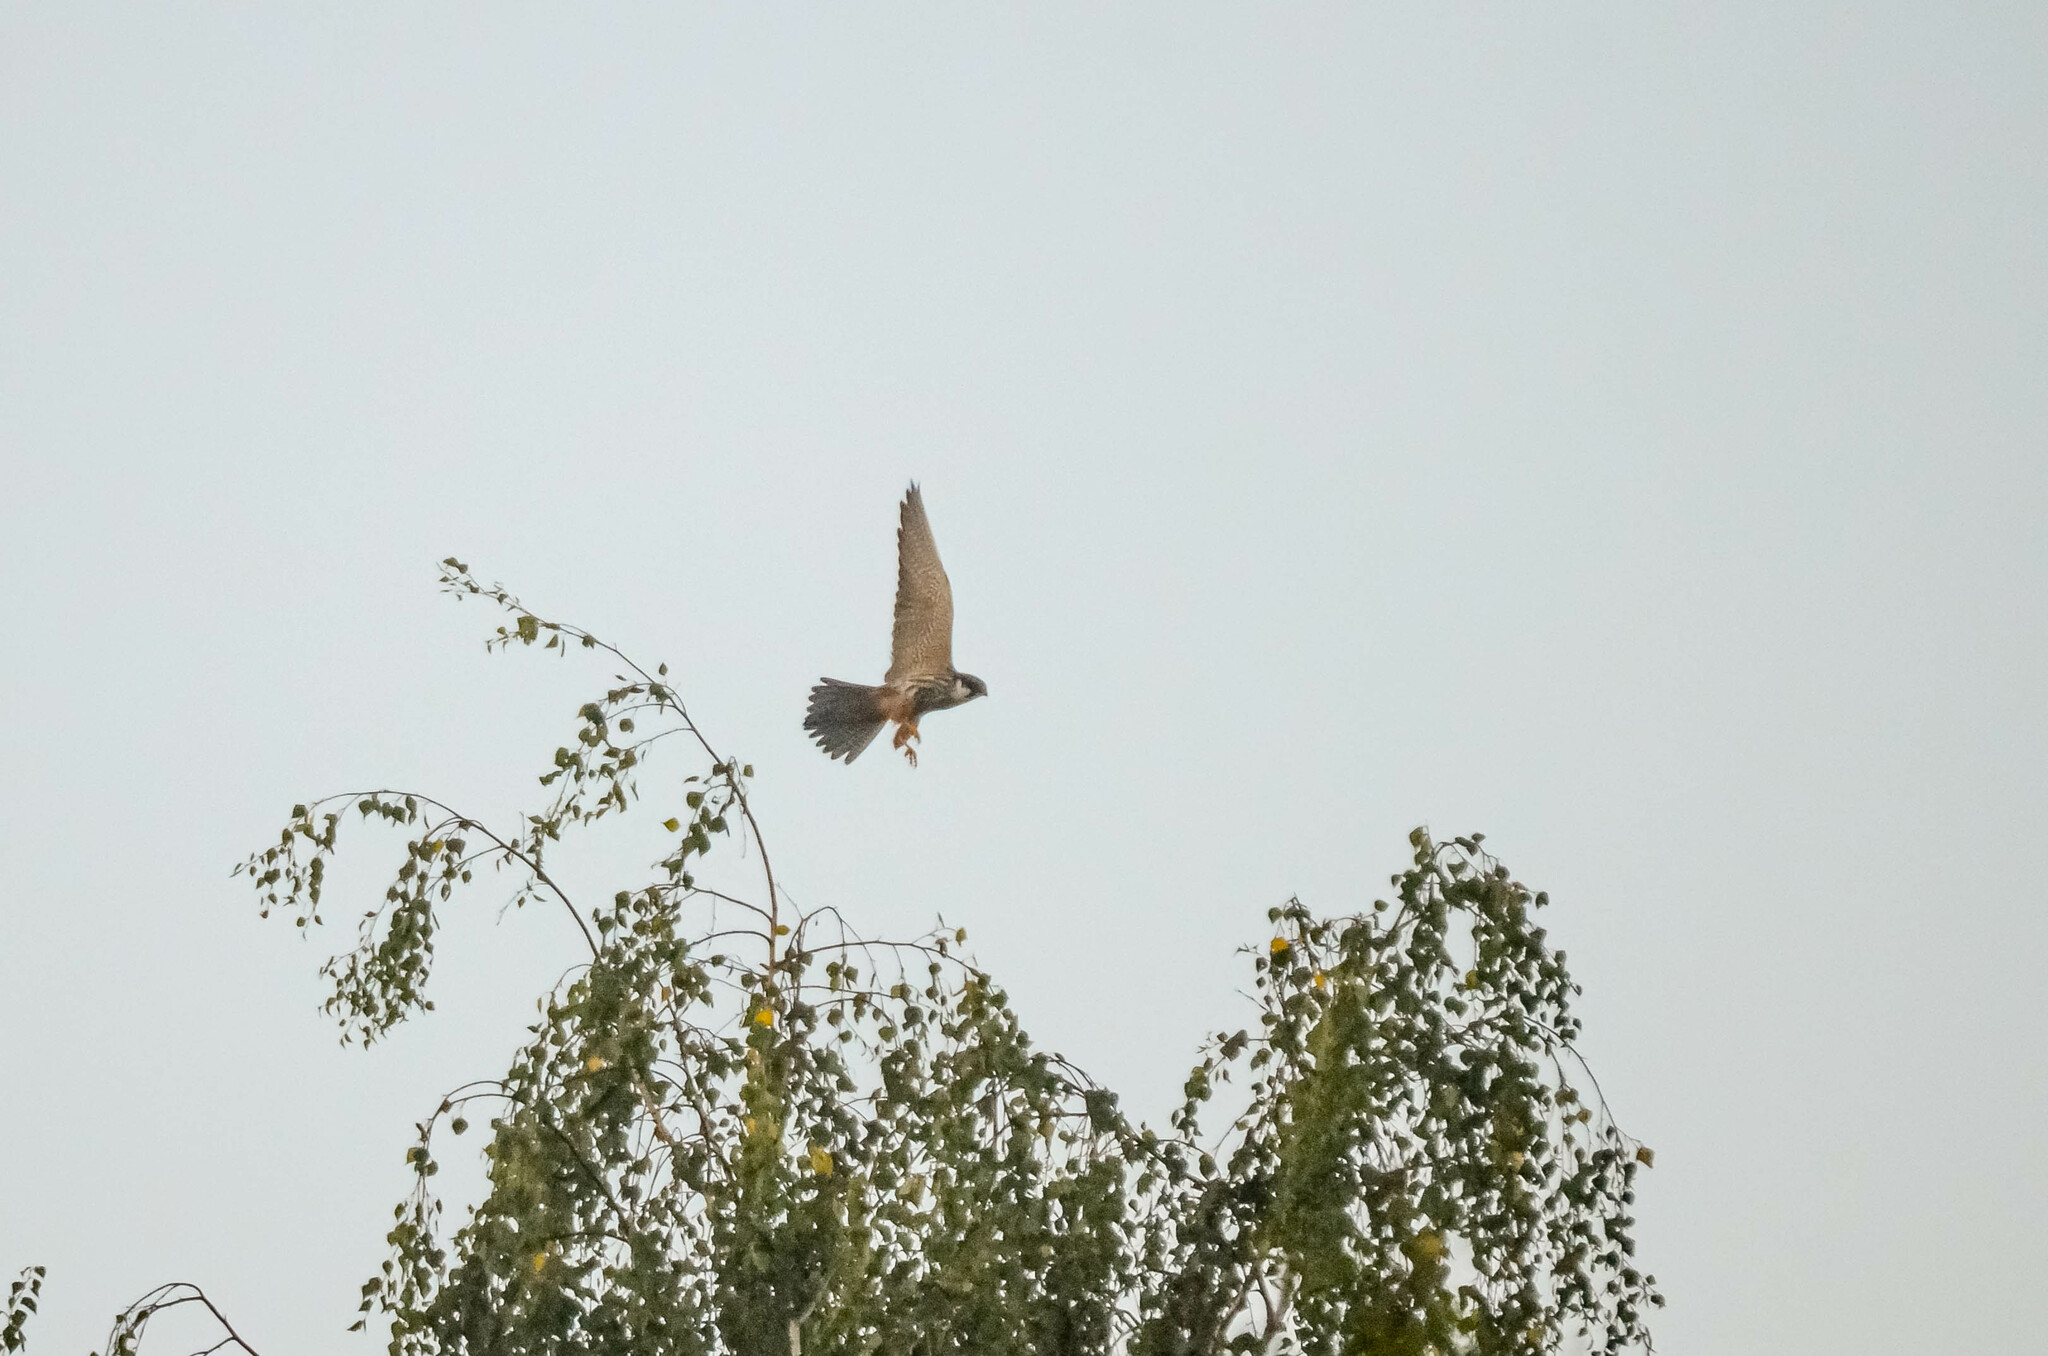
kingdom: Animalia
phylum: Chordata
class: Aves
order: Falconiformes
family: Falconidae
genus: Falco
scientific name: Falco subbuteo
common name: Eurasian hobby
